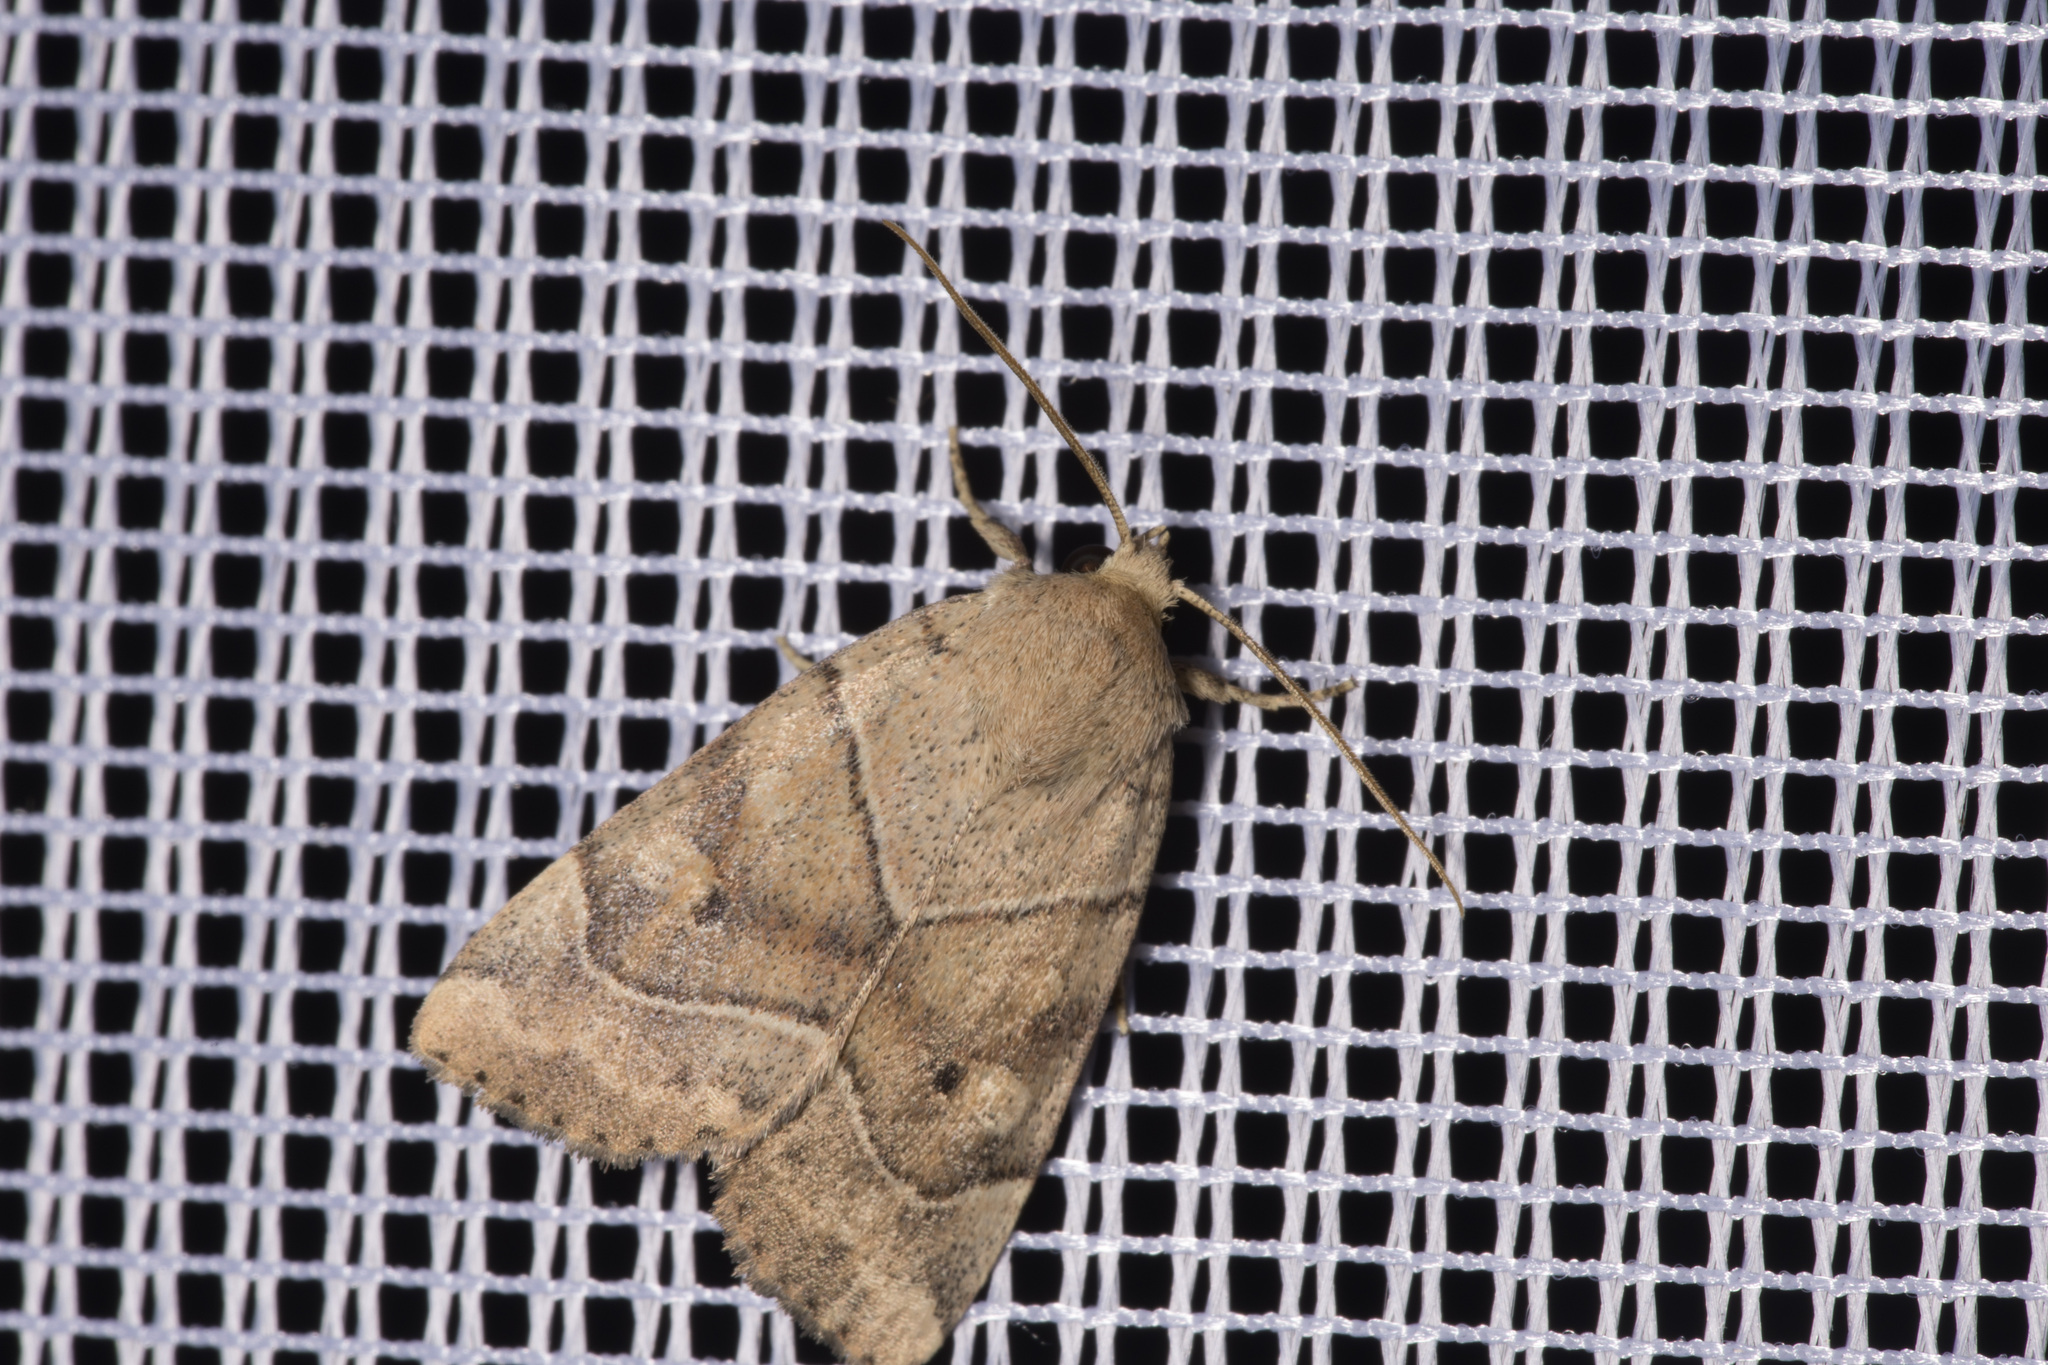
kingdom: Animalia
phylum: Arthropoda
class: Insecta
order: Lepidoptera
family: Noctuidae
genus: Cosmia
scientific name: Cosmia trapezina
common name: Dun-bar
